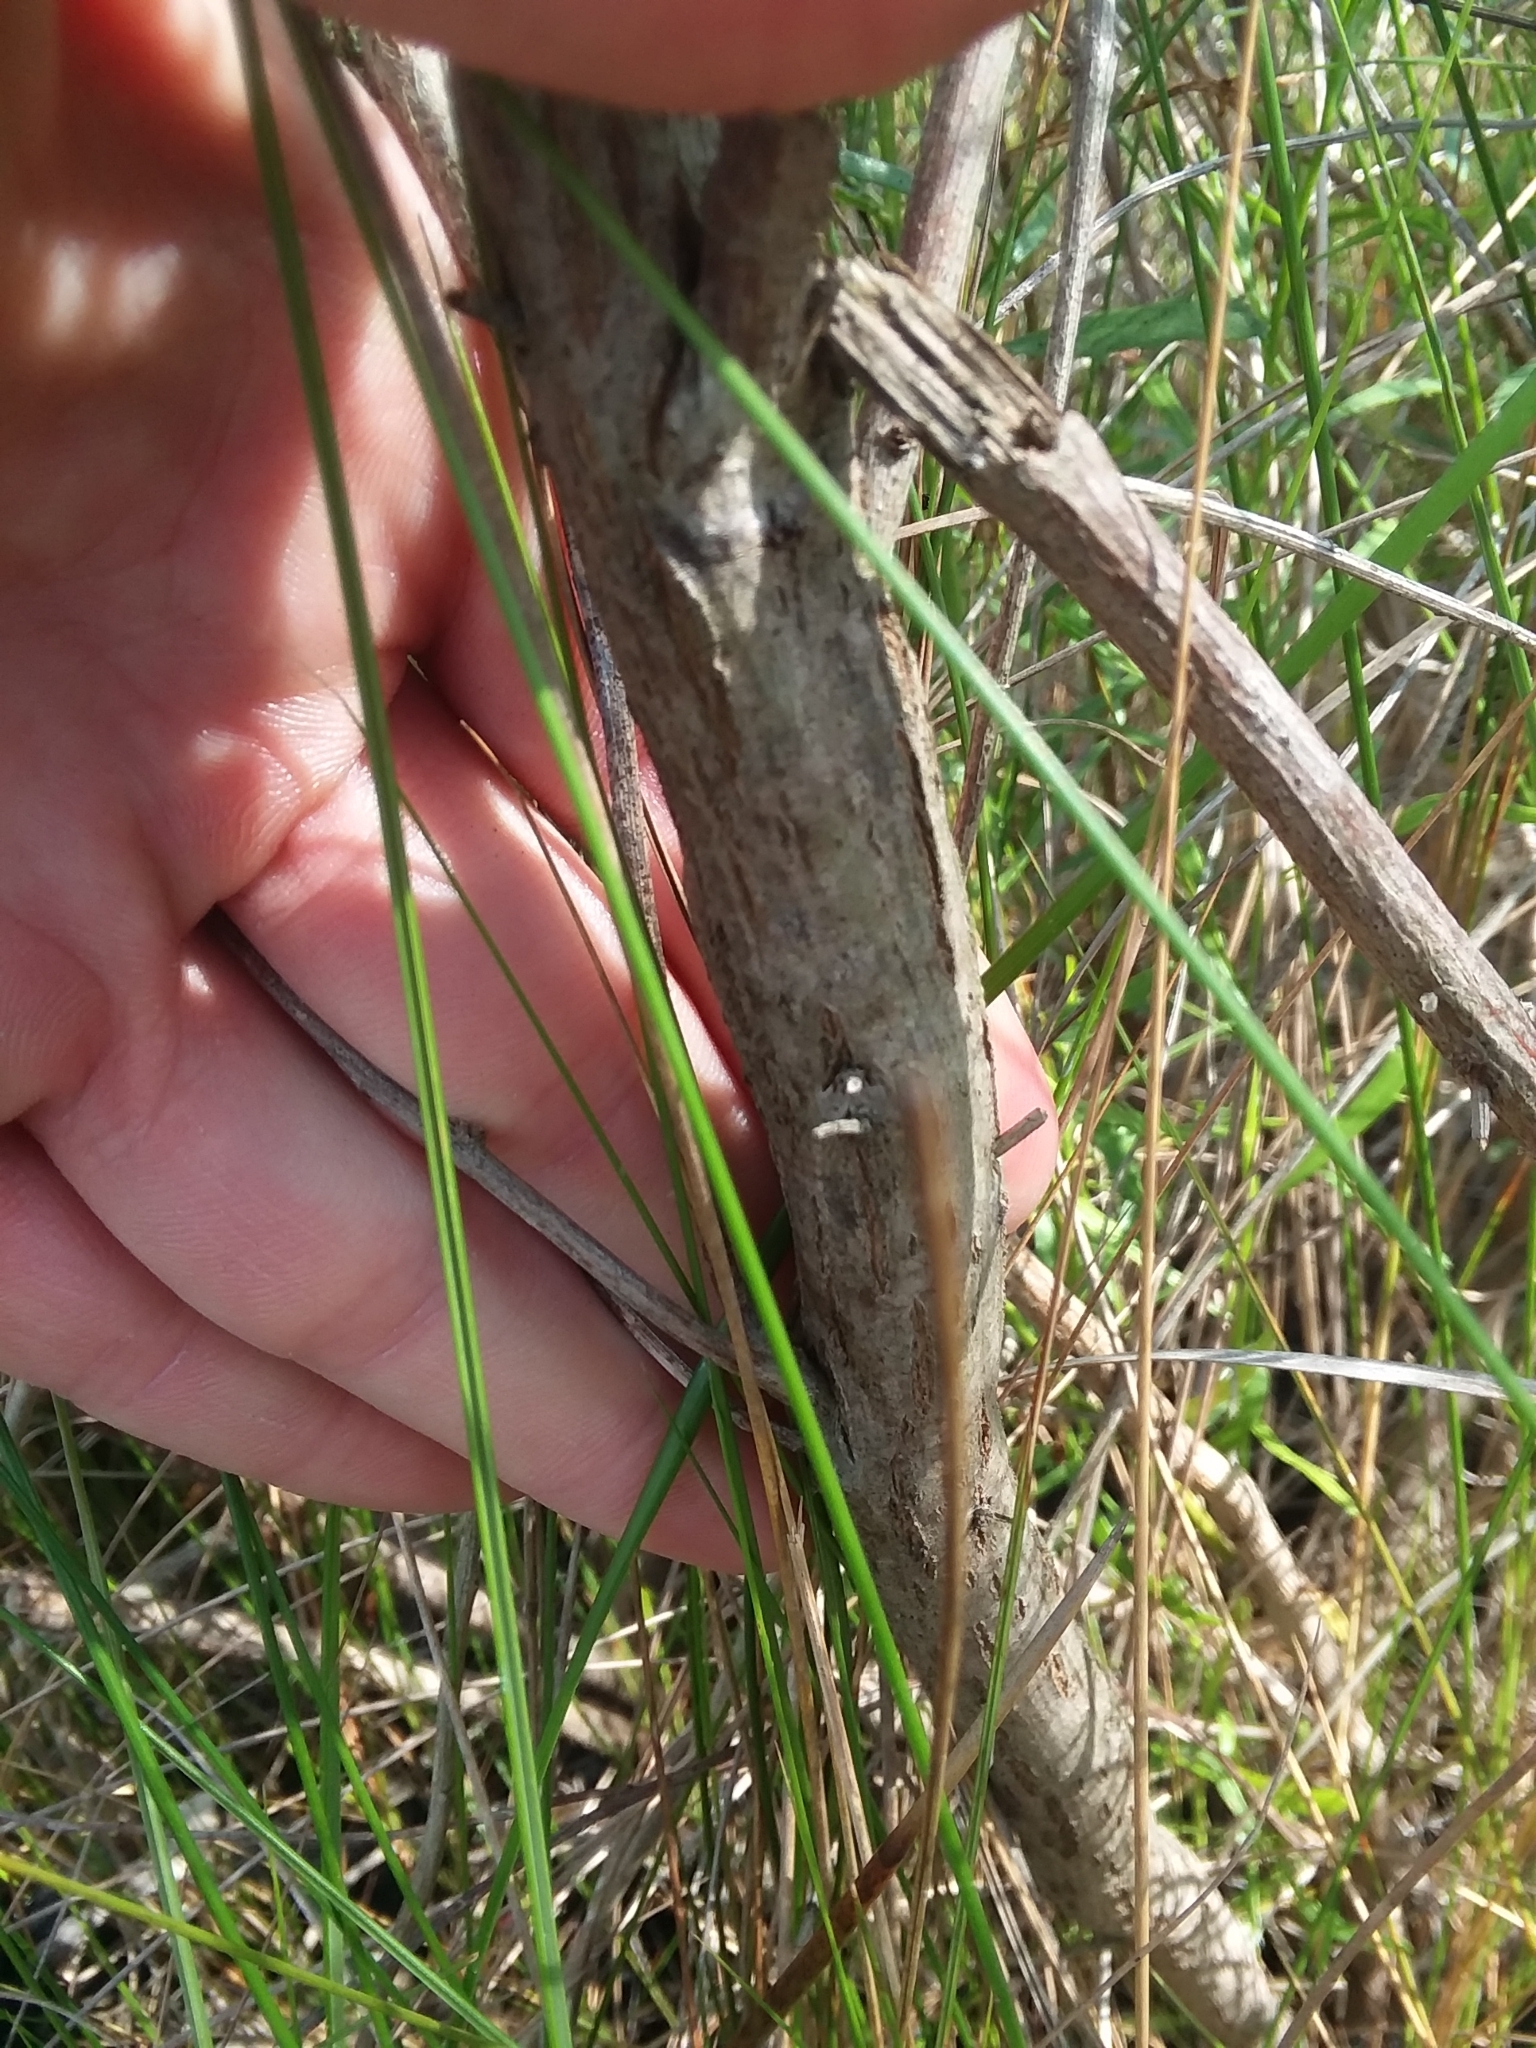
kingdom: Plantae
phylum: Tracheophyta
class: Magnoliopsida
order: Asterales
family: Asteraceae
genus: Baccharis
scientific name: Baccharis angustifolia
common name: Narrow-leaf baccharis
